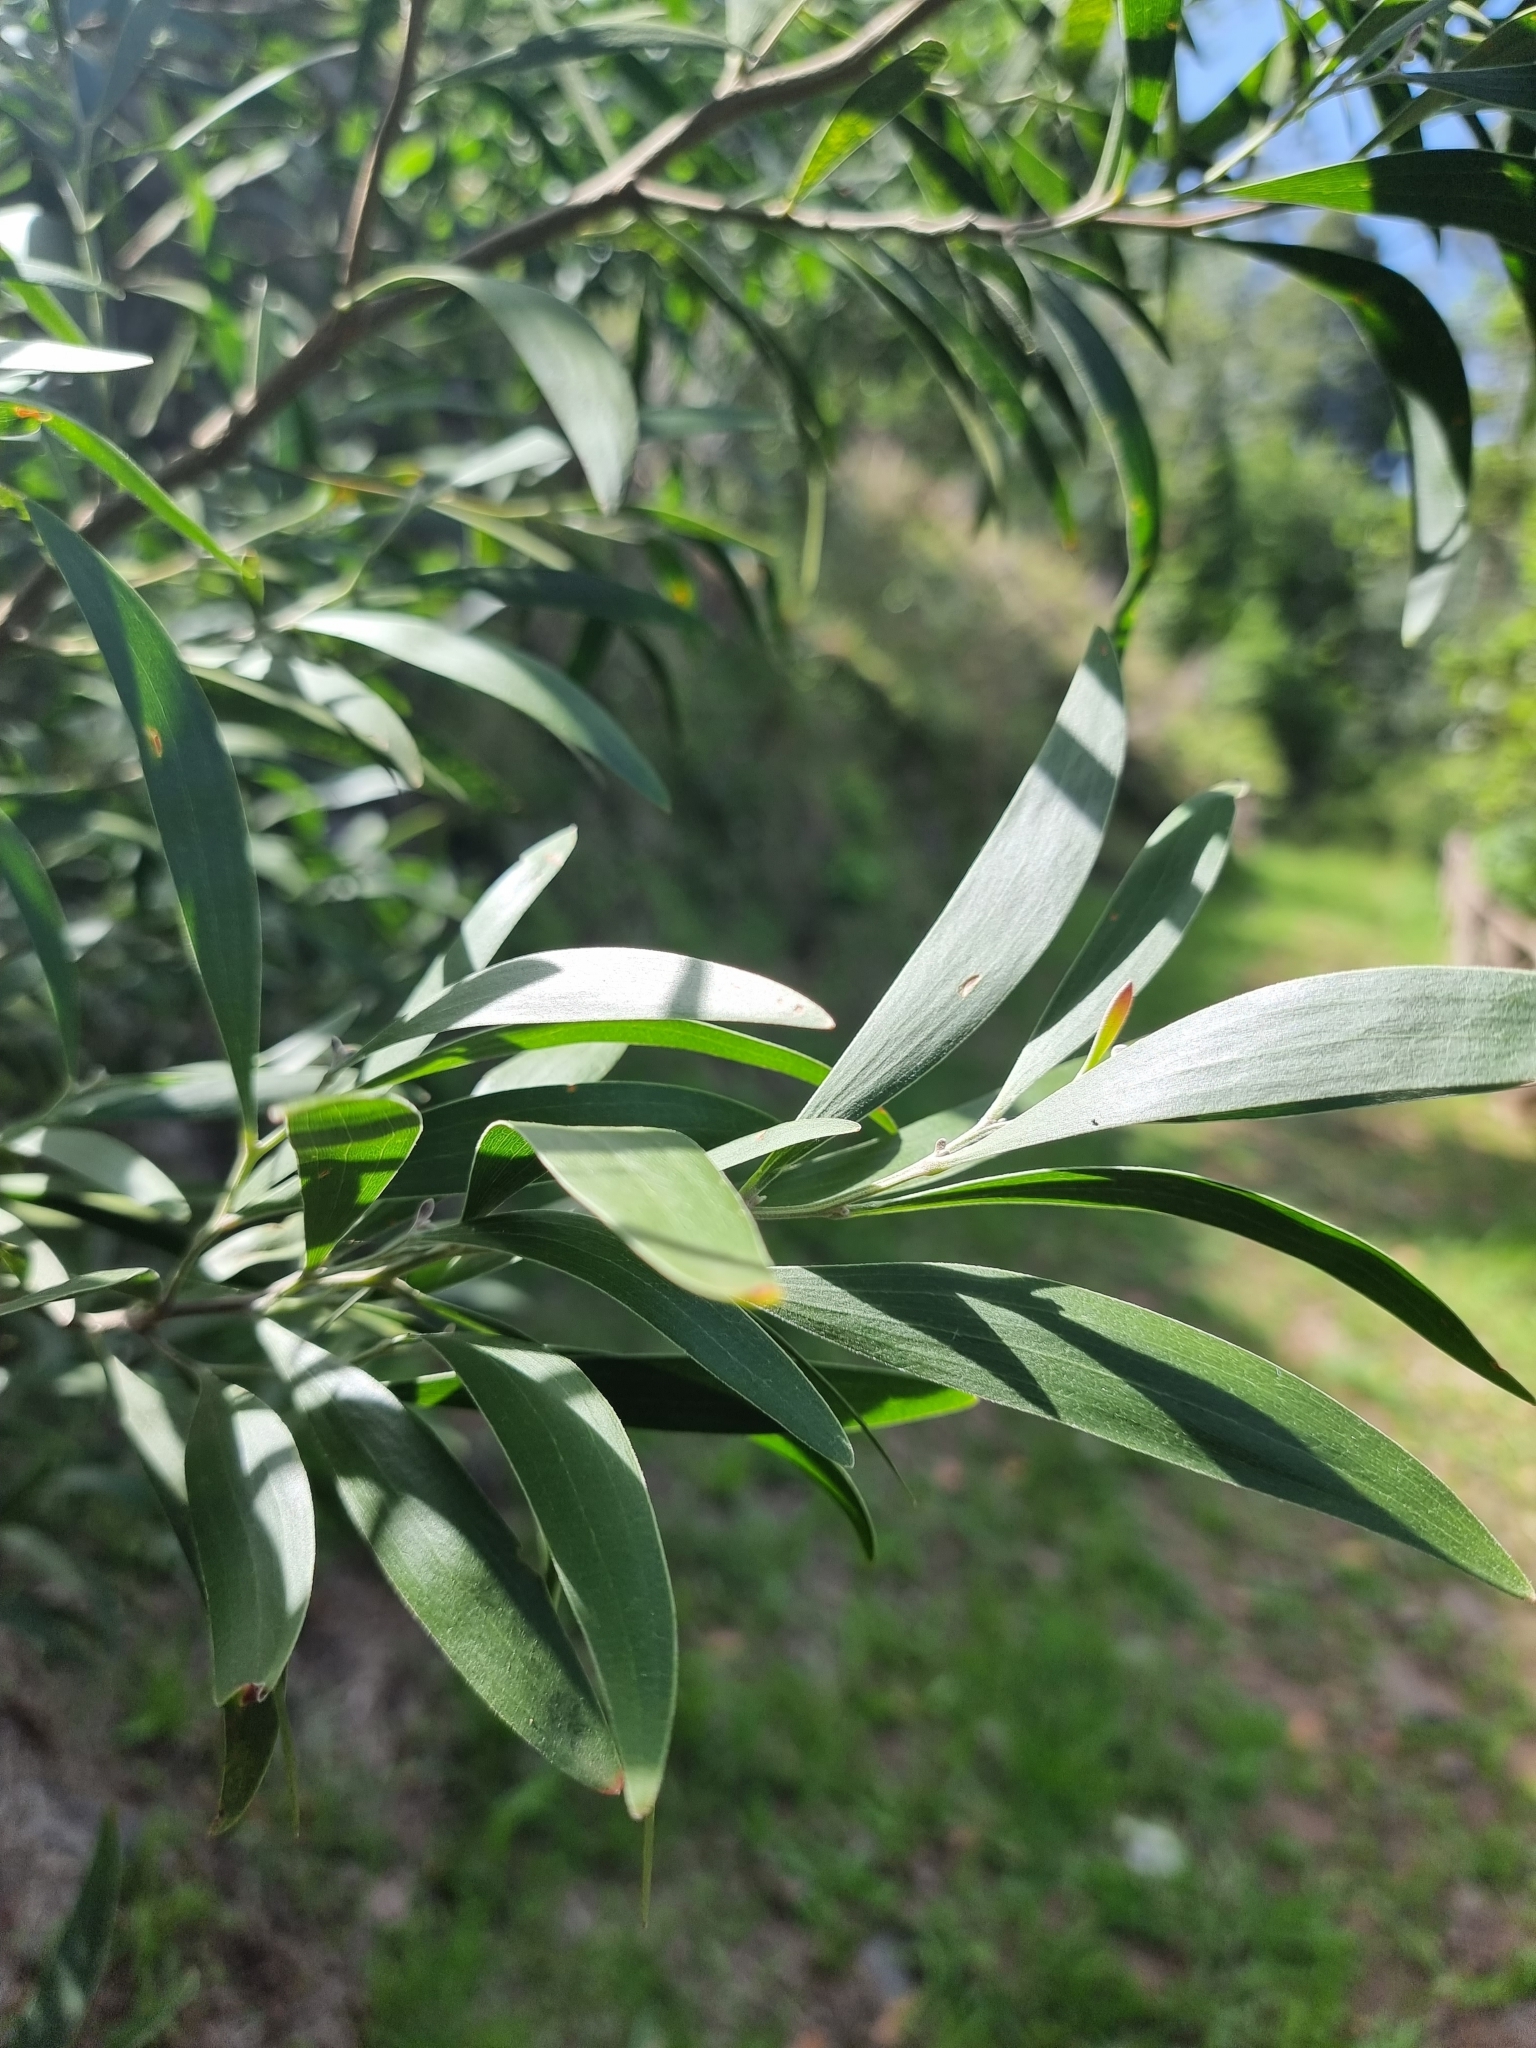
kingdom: Plantae
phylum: Tracheophyta
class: Magnoliopsida
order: Fabales
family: Fabaceae
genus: Acacia
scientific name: Acacia melanoxylon
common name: Blackwood
